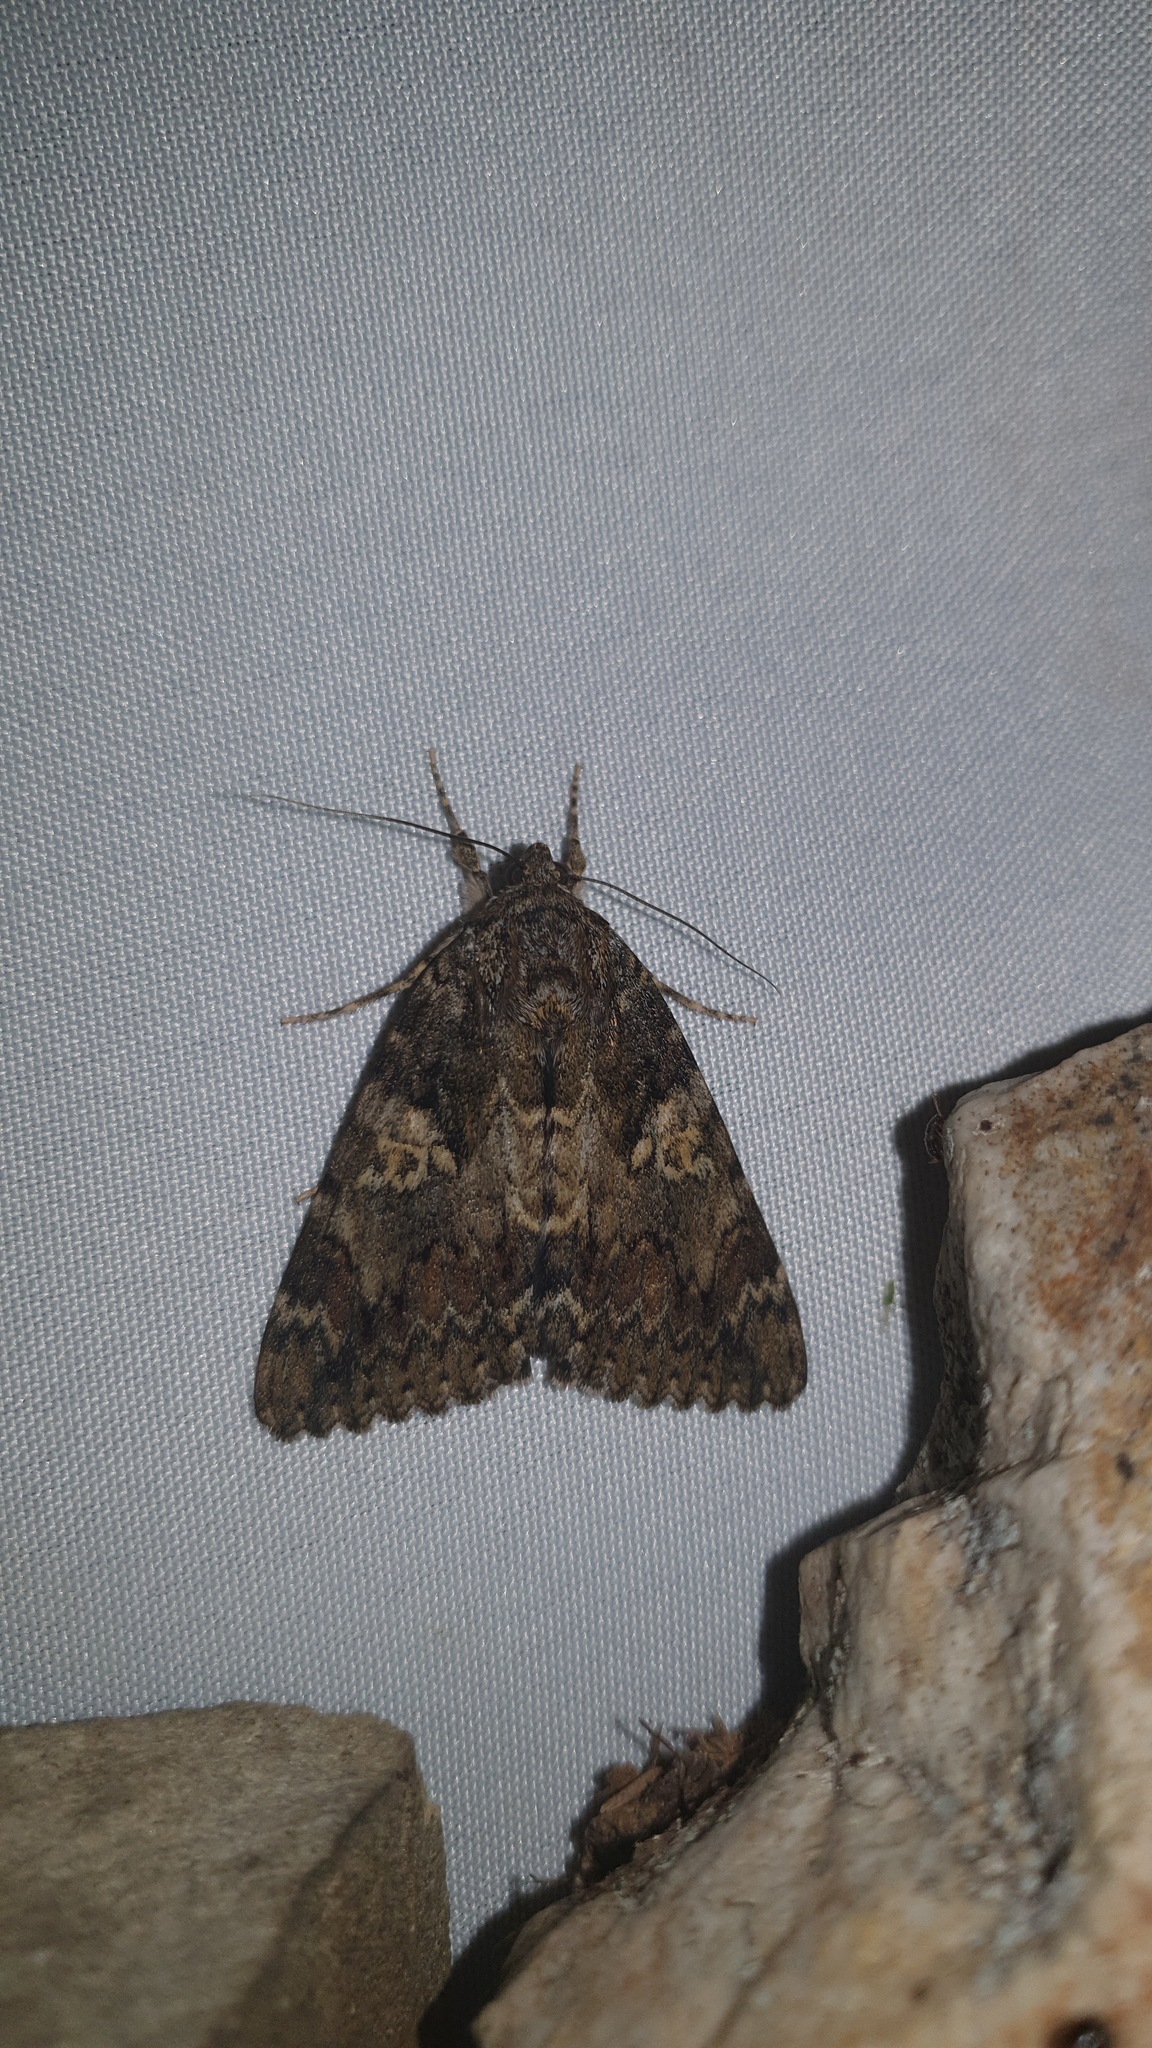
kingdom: Animalia
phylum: Arthropoda
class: Insecta
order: Lepidoptera
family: Erebidae
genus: Catocala
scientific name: Catocala sponsa
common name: Dark crimson underwing
